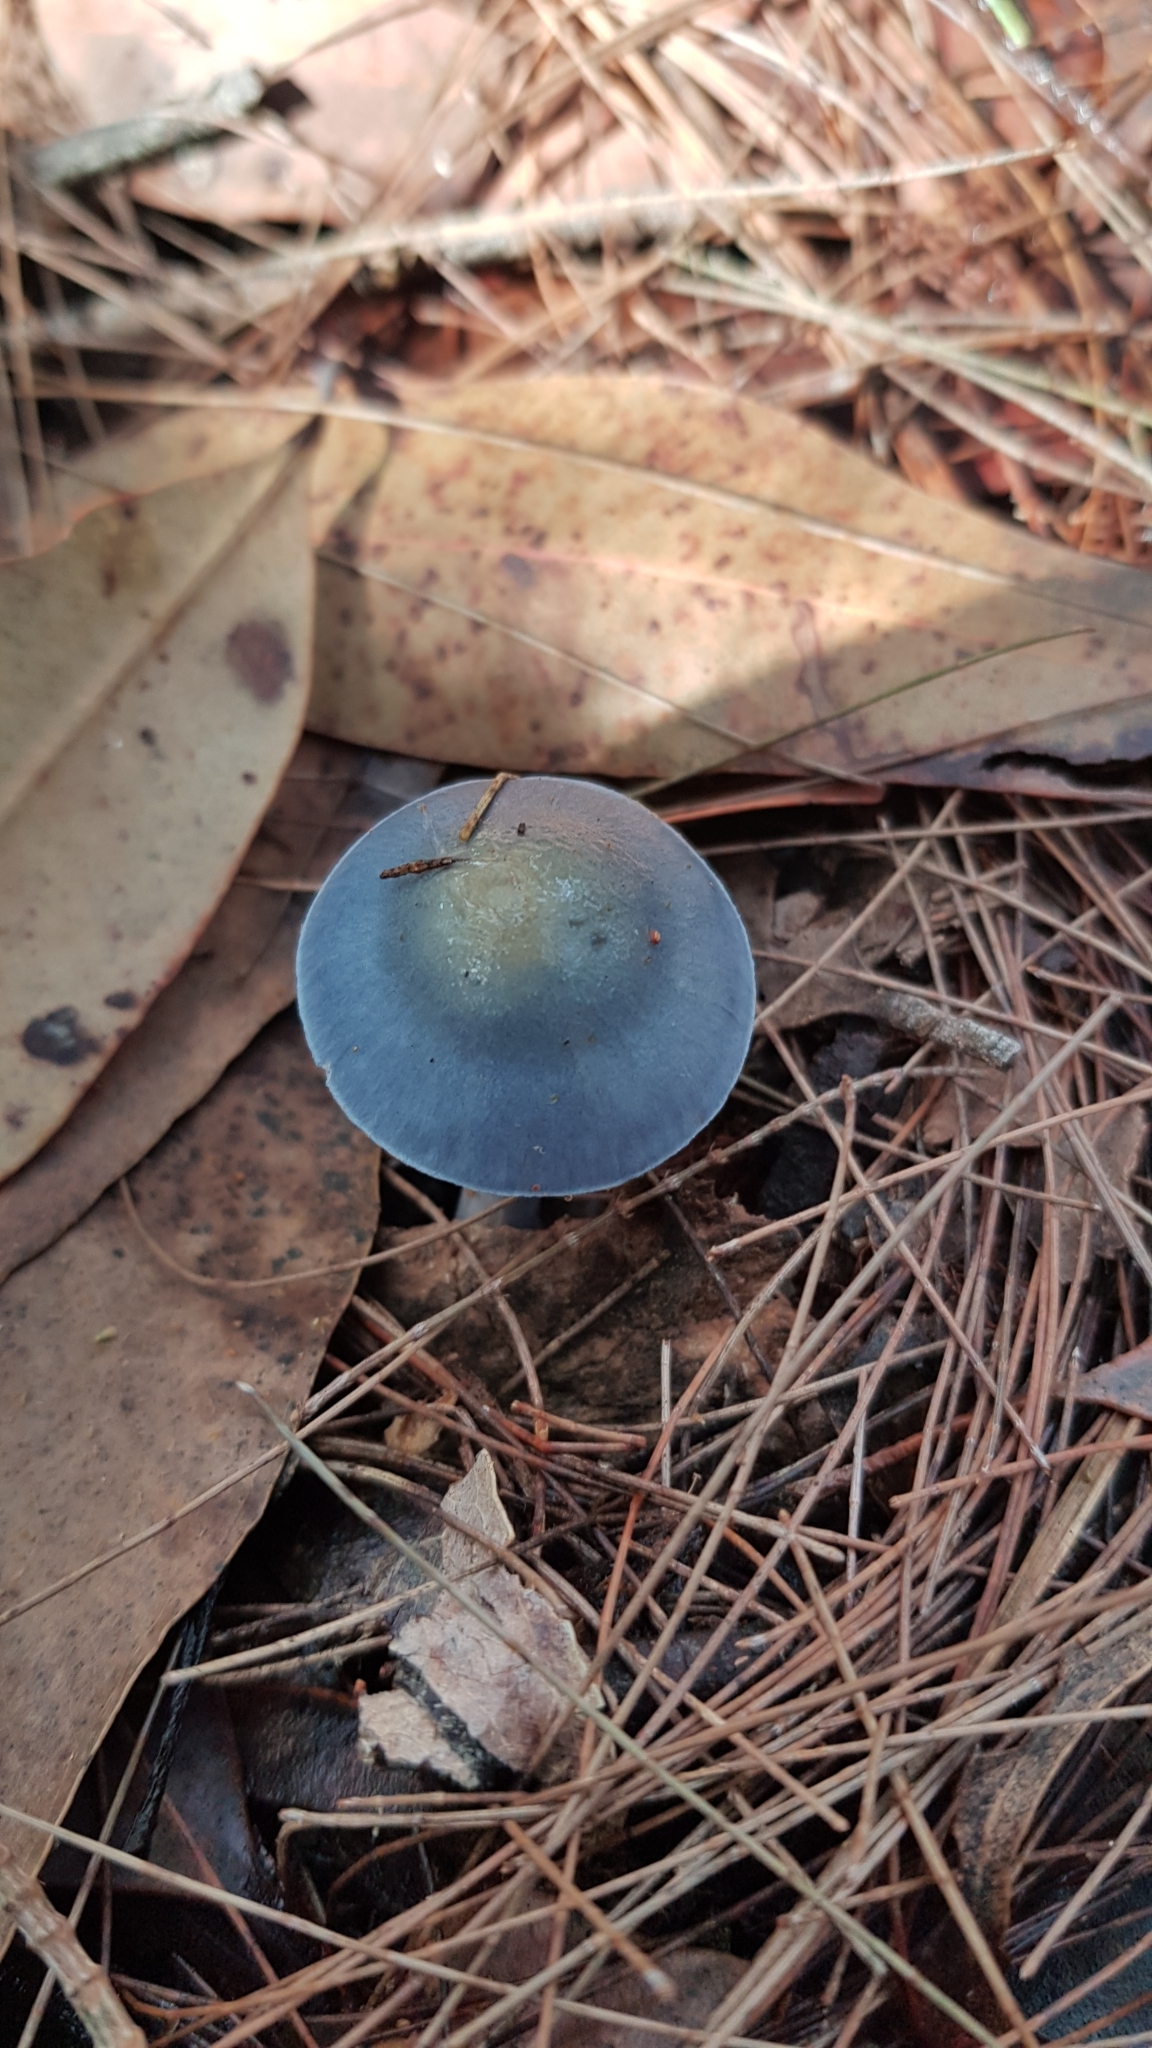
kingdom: Fungi
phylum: Basidiomycota
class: Agaricomycetes
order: Agaricales
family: Cortinariaceae
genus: Cortinarius
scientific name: Cortinarius rotundisporus
